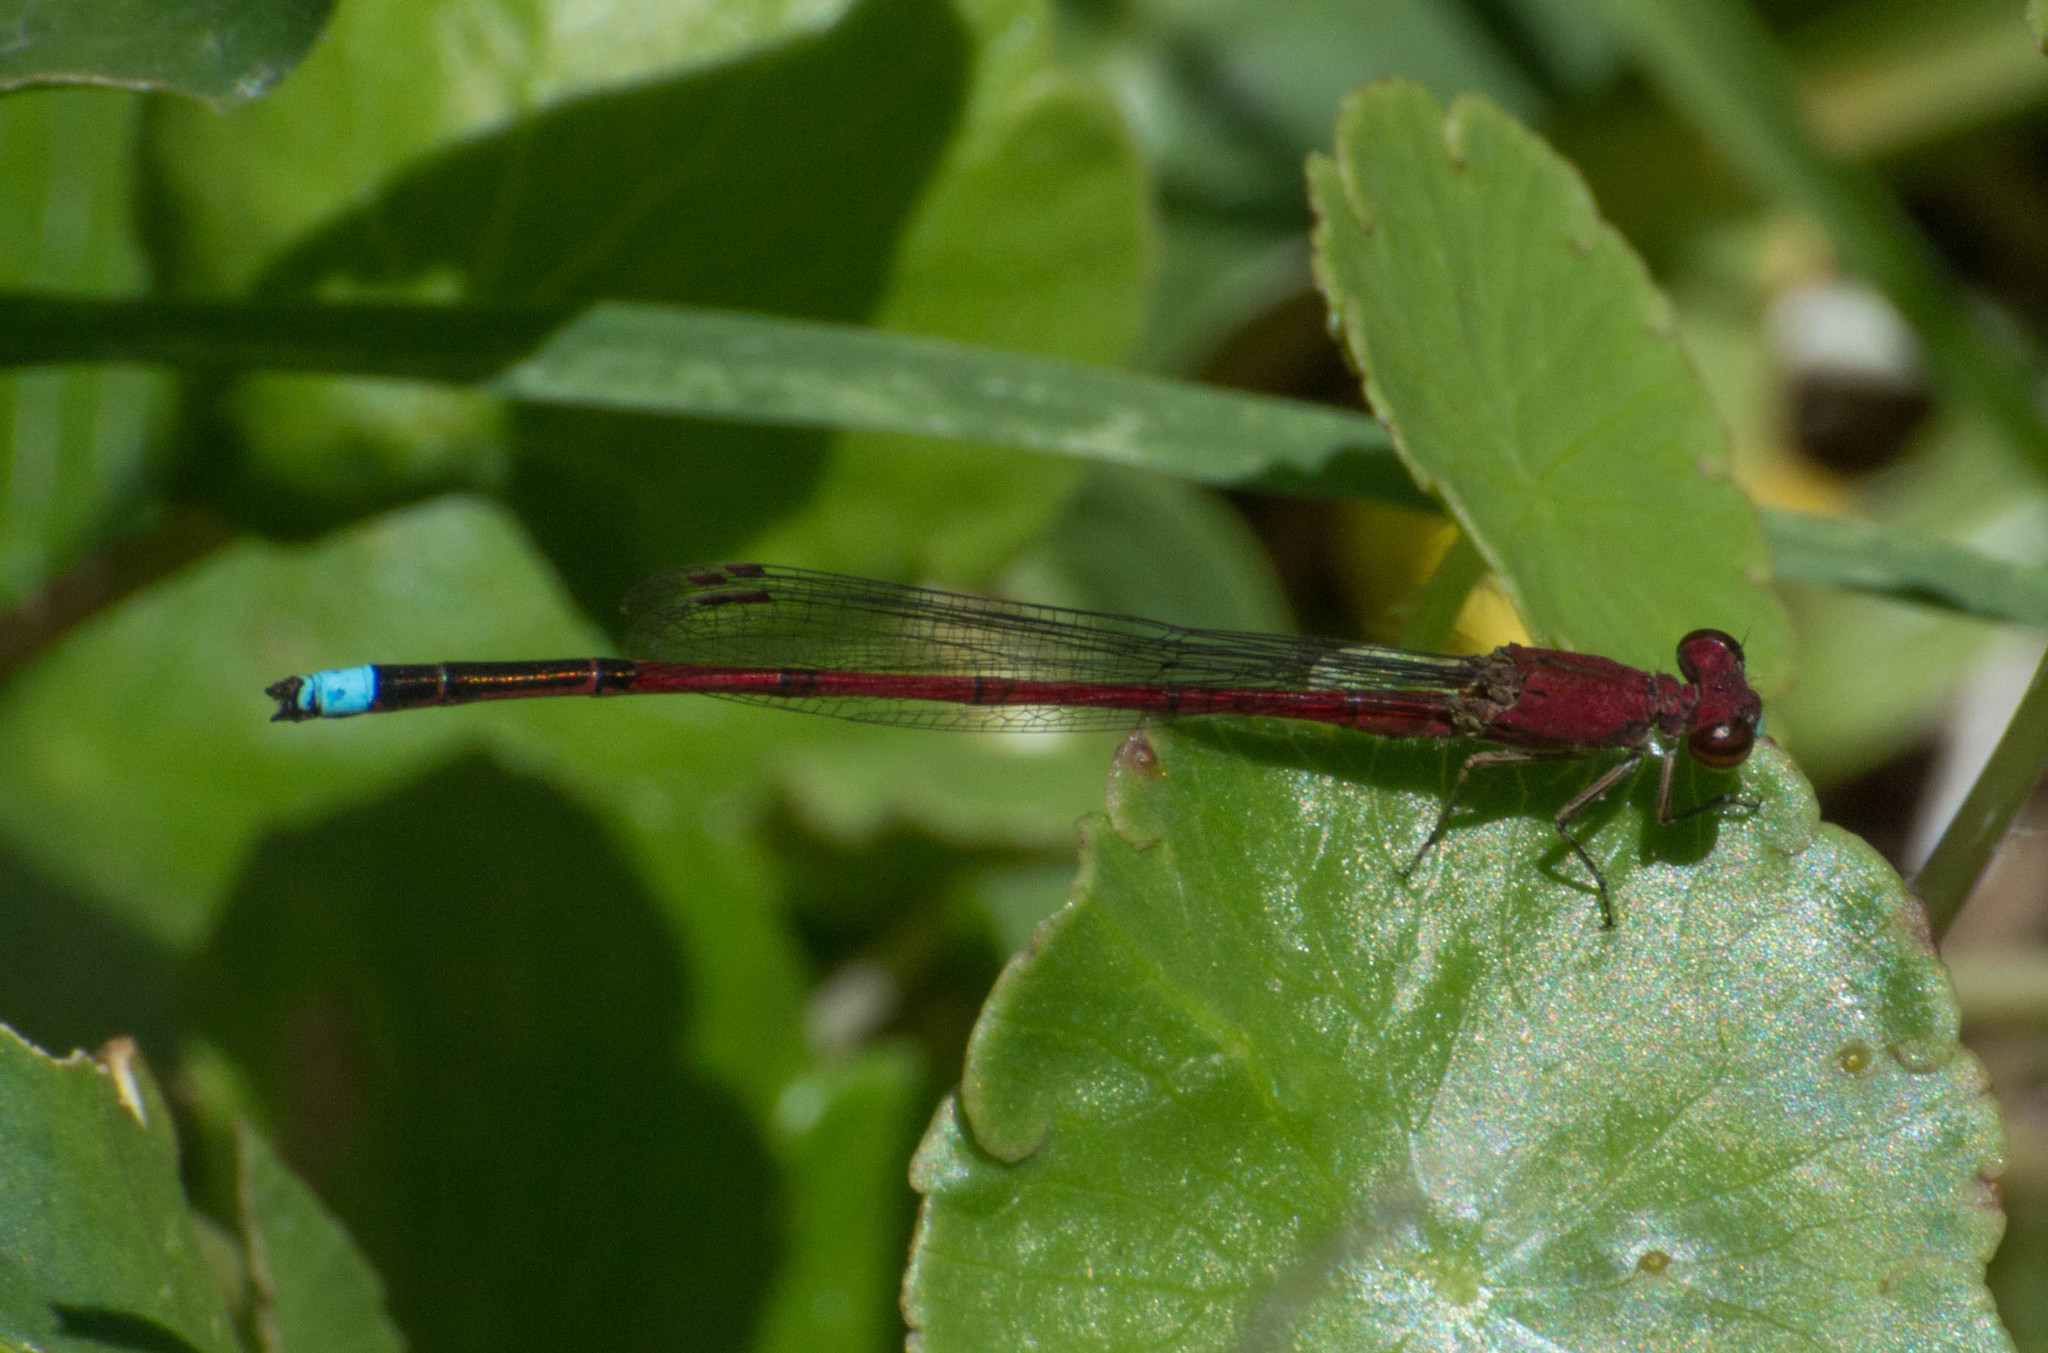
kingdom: Animalia
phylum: Arthropoda
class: Insecta
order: Odonata
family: Coenagrionidae
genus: Oxyagrion
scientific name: Oxyagrion terminale
